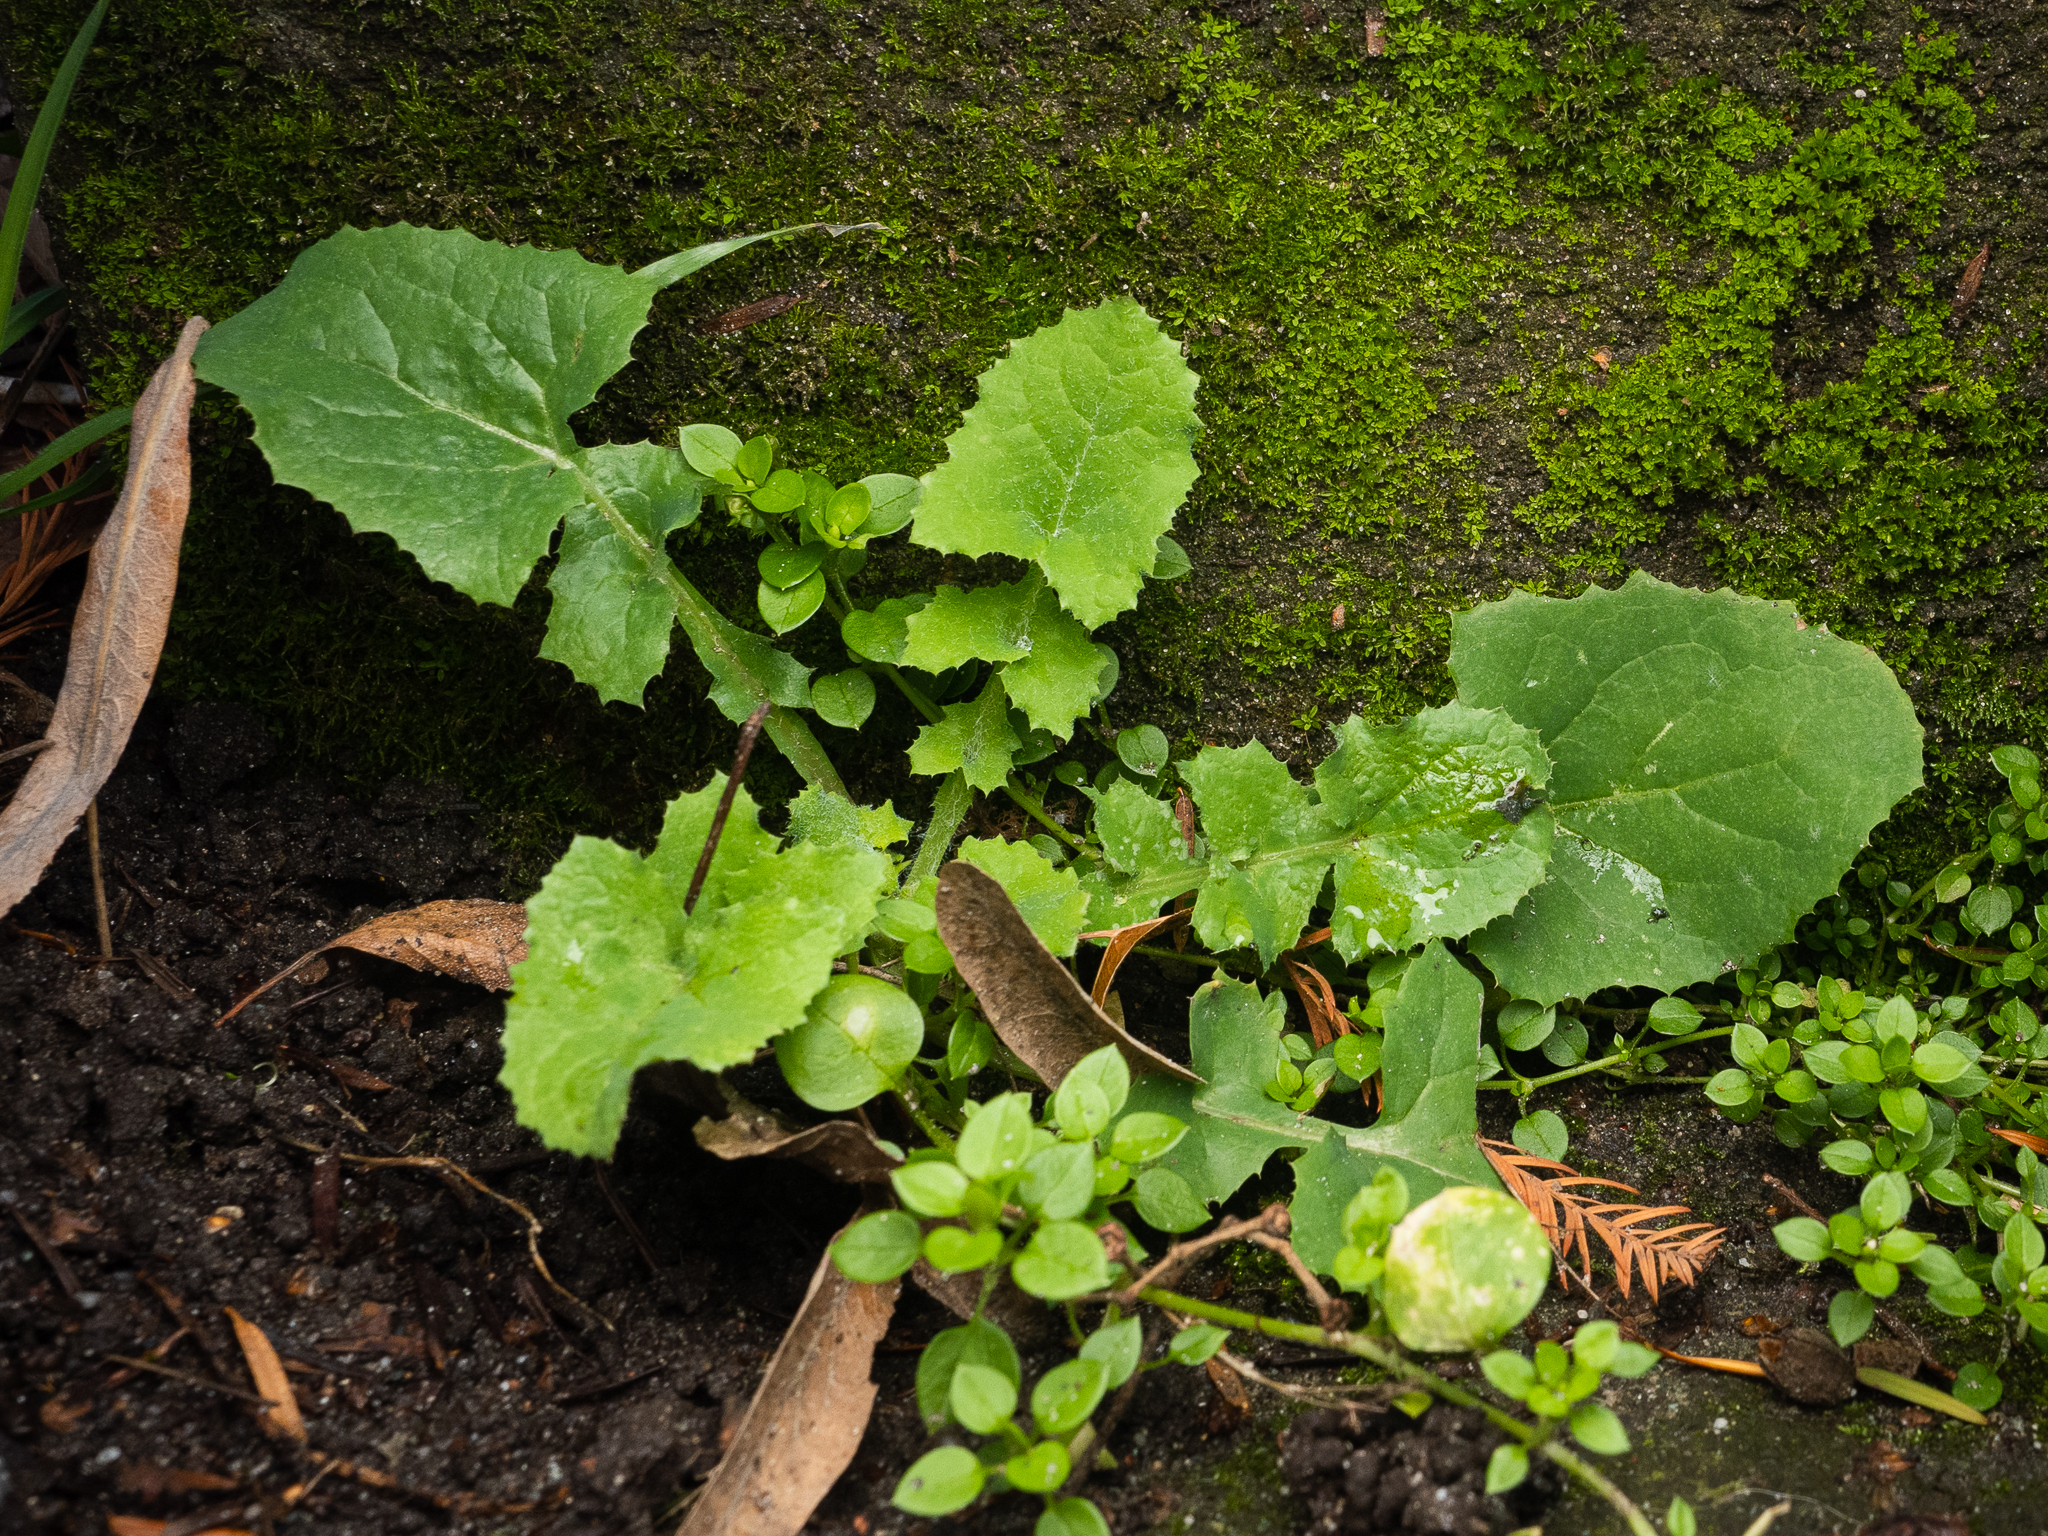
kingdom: Plantae
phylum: Tracheophyta
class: Magnoliopsida
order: Asterales
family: Asteraceae
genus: Sonchus
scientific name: Sonchus oleraceus
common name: Common sowthistle
